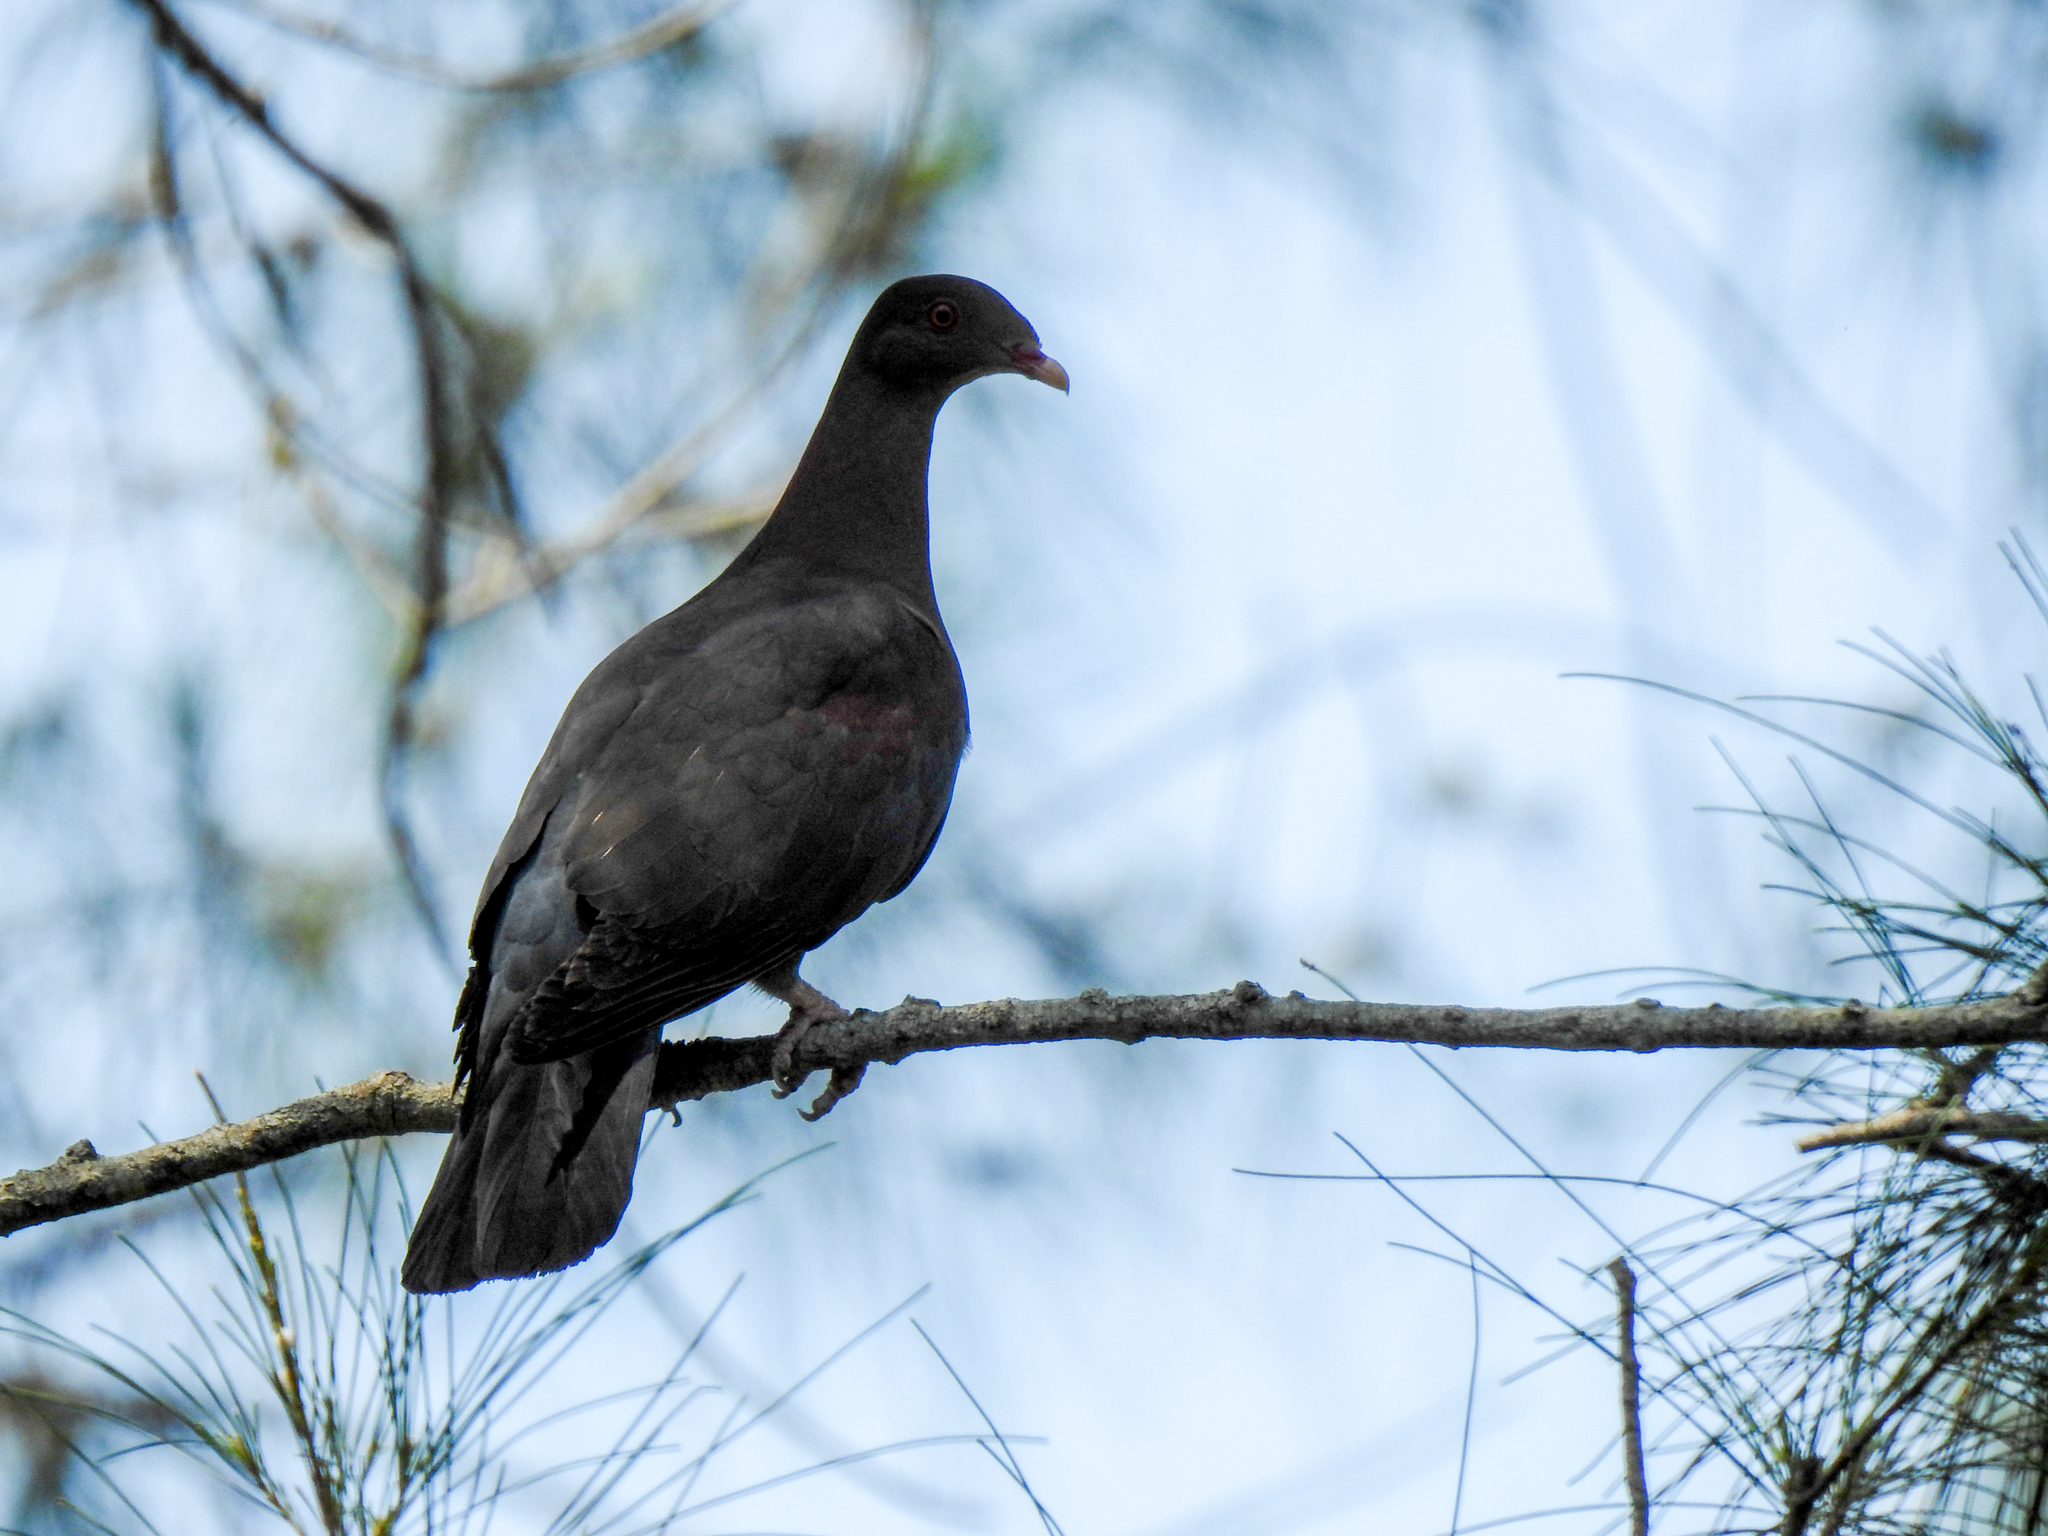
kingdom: Animalia
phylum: Chordata
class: Aves
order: Columbiformes
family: Columbidae
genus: Patagioenas
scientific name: Patagioenas flavirostris
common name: Red-billed pigeon
